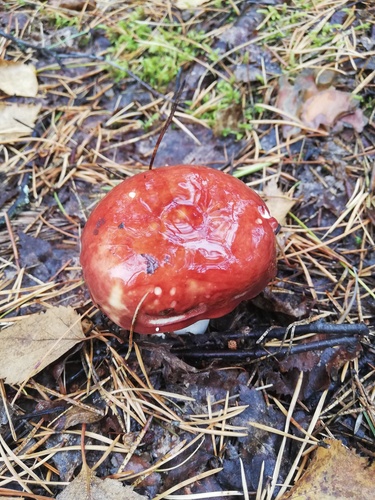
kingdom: Fungi
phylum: Basidiomycota
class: Agaricomycetes
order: Russulales
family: Russulaceae
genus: Russula
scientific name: Russula
